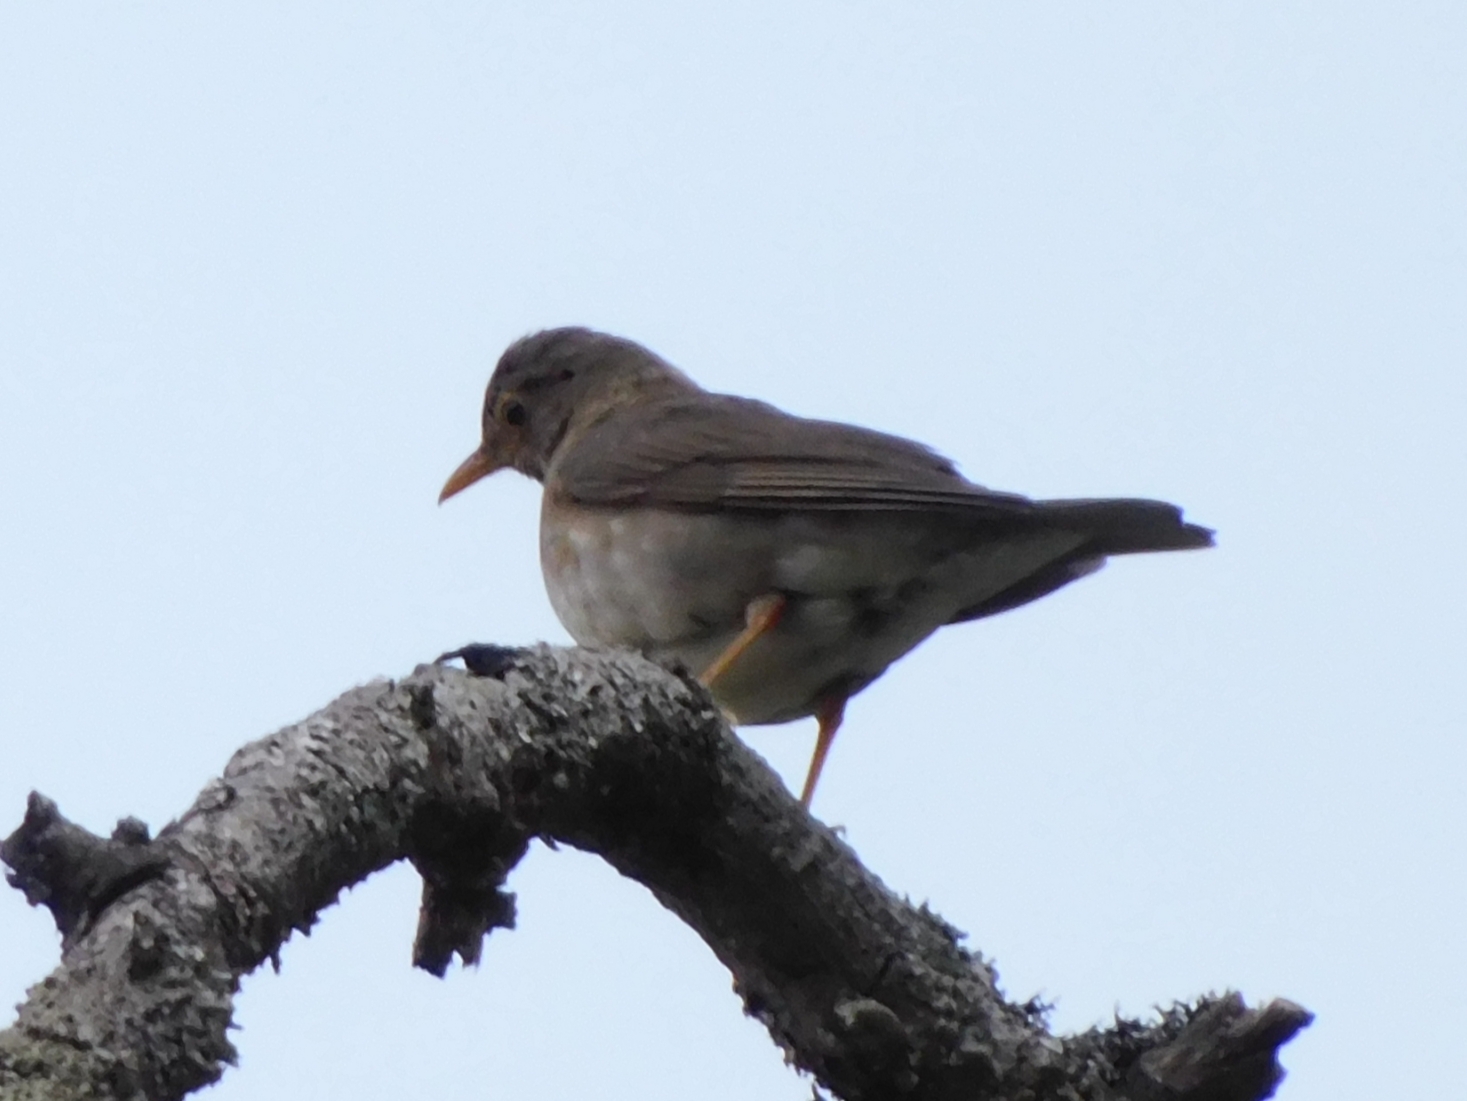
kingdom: Animalia
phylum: Chordata
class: Aves
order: Passeriformes
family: Turdidae
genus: Turdus
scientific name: Turdus unicolor
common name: Tickell's thrush
